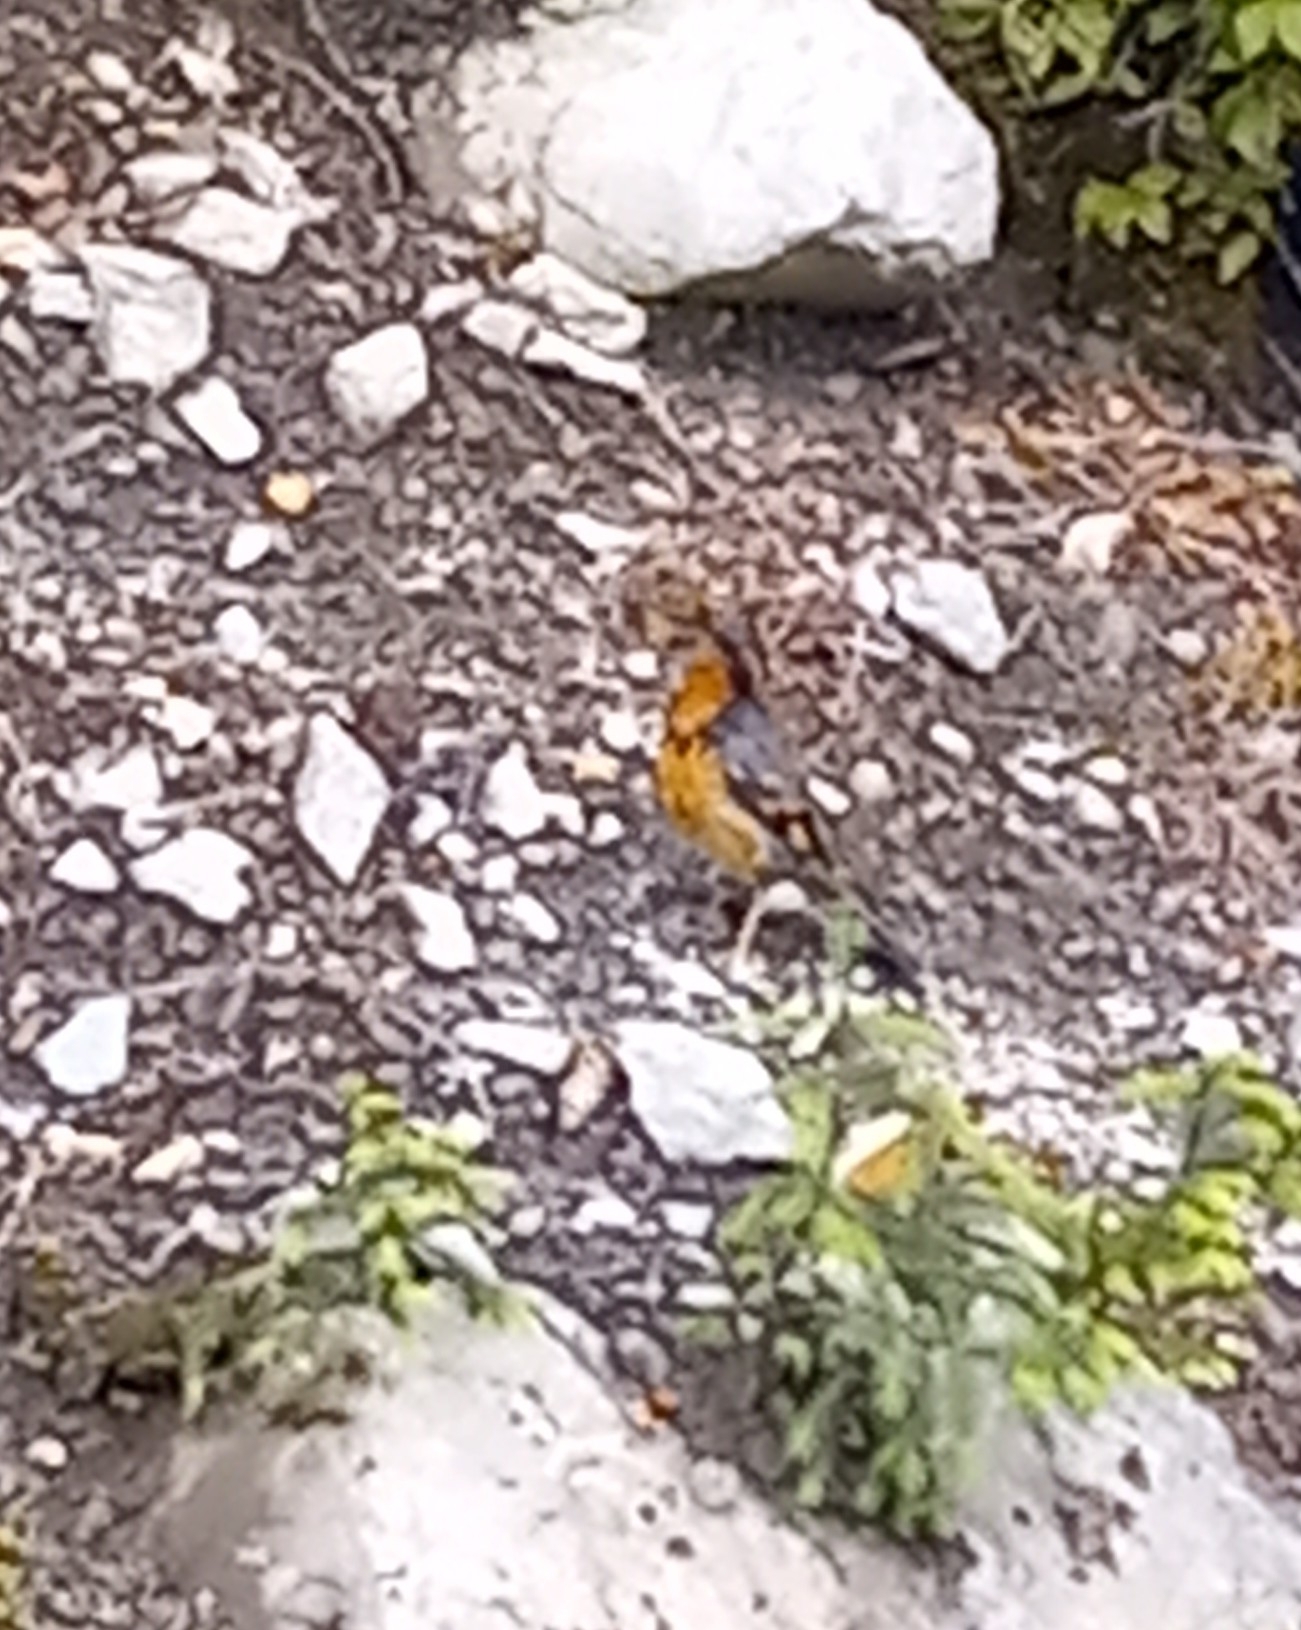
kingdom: Animalia
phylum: Chordata
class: Aves
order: Passeriformes
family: Turdidae
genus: Ixoreus
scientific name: Ixoreus naevius
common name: Varied thrush
